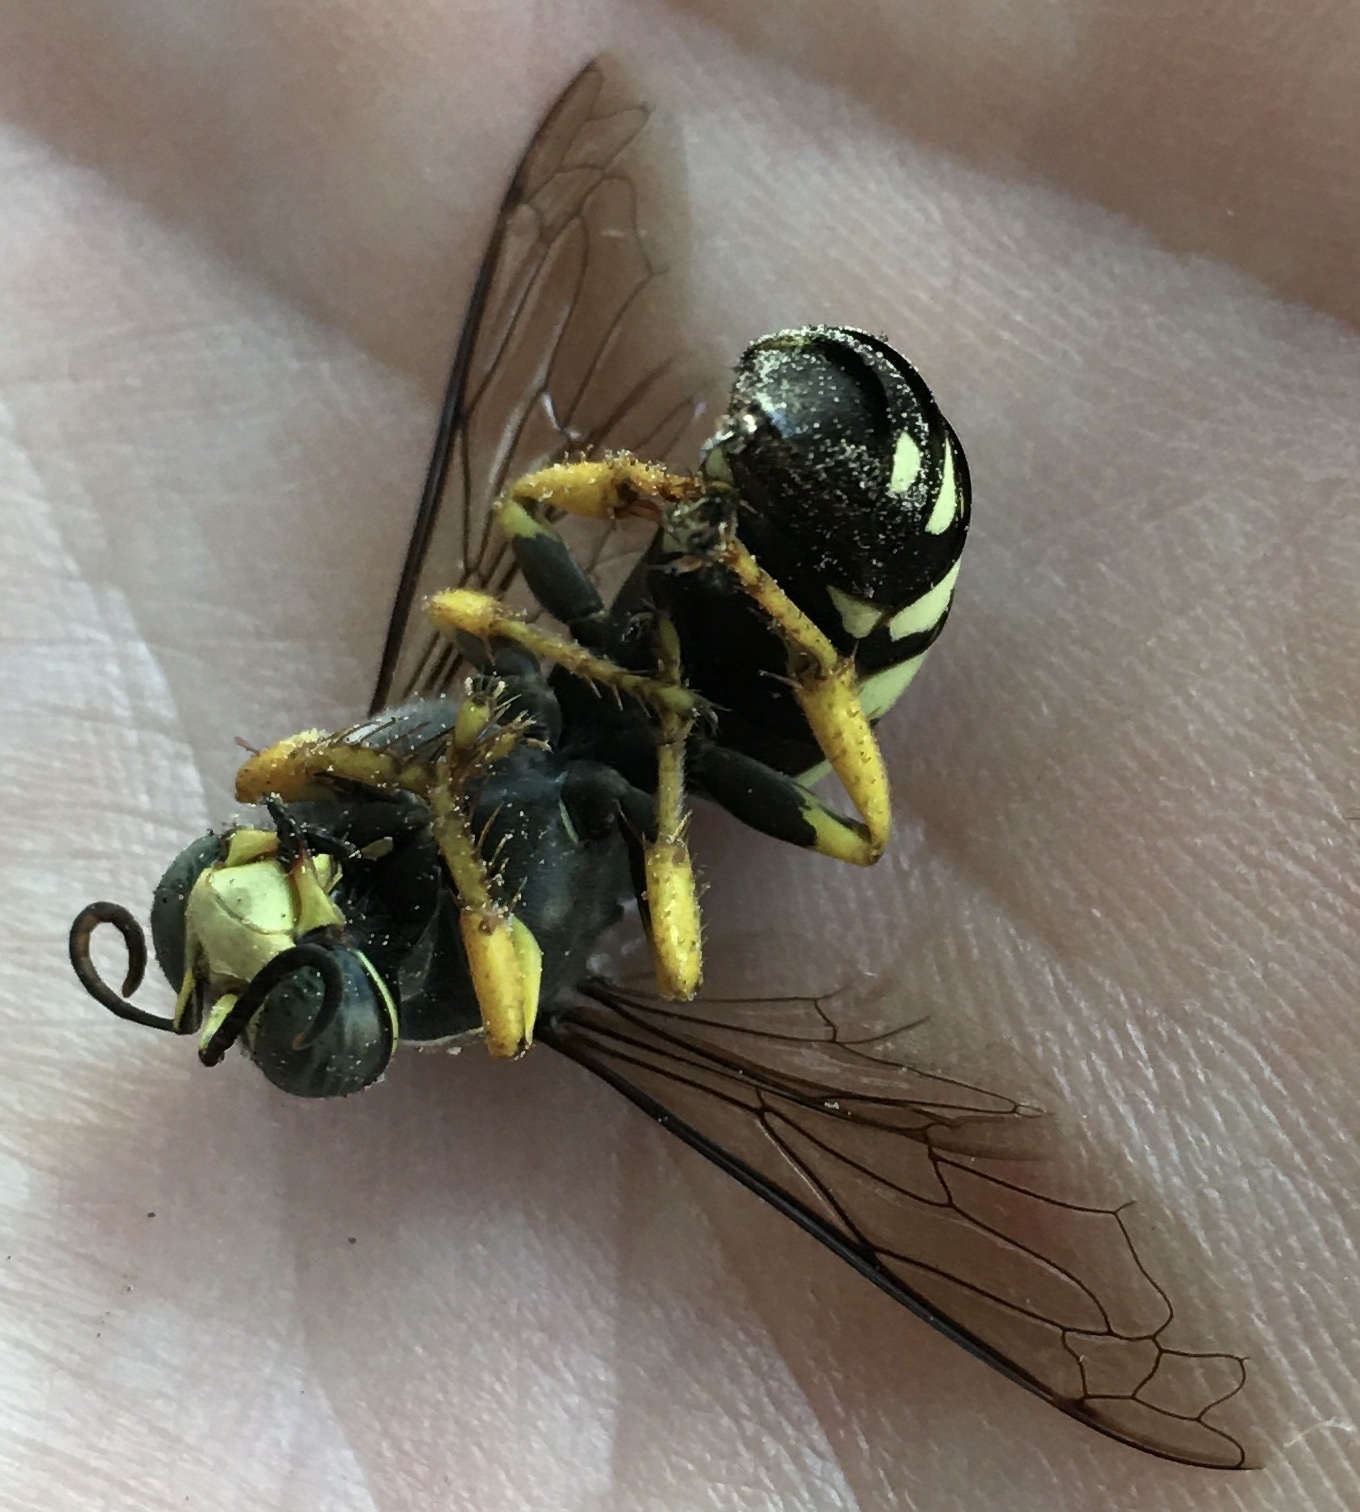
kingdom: Animalia
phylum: Arthropoda
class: Insecta
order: Hymenoptera
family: Crabronidae
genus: Stictia
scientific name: Stictia carolina
